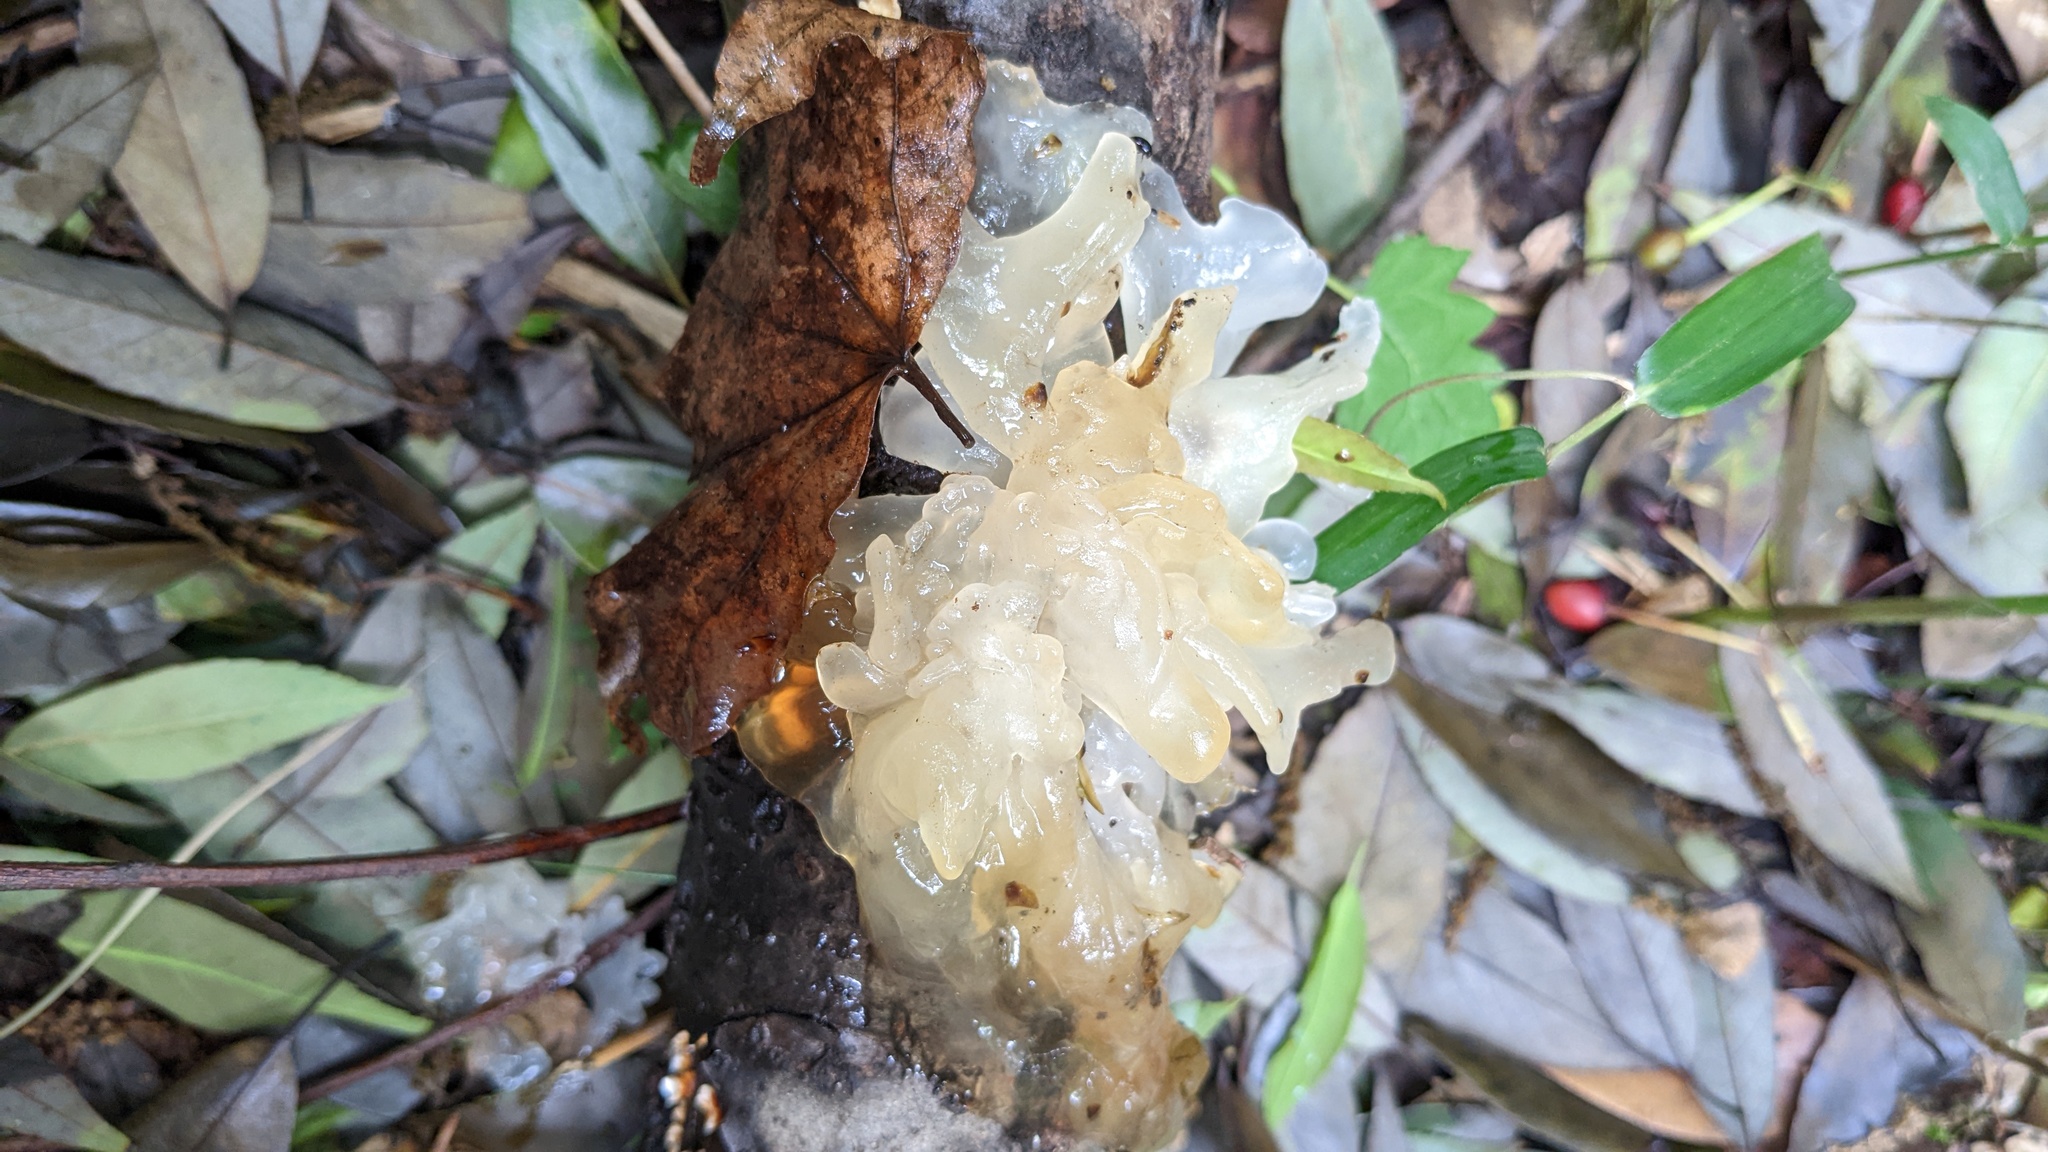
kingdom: Fungi
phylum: Basidiomycota
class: Tremellomycetes
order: Tremellales
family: Tremellaceae
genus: Tremella
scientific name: Tremella fuciformis
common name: Snow fungus
